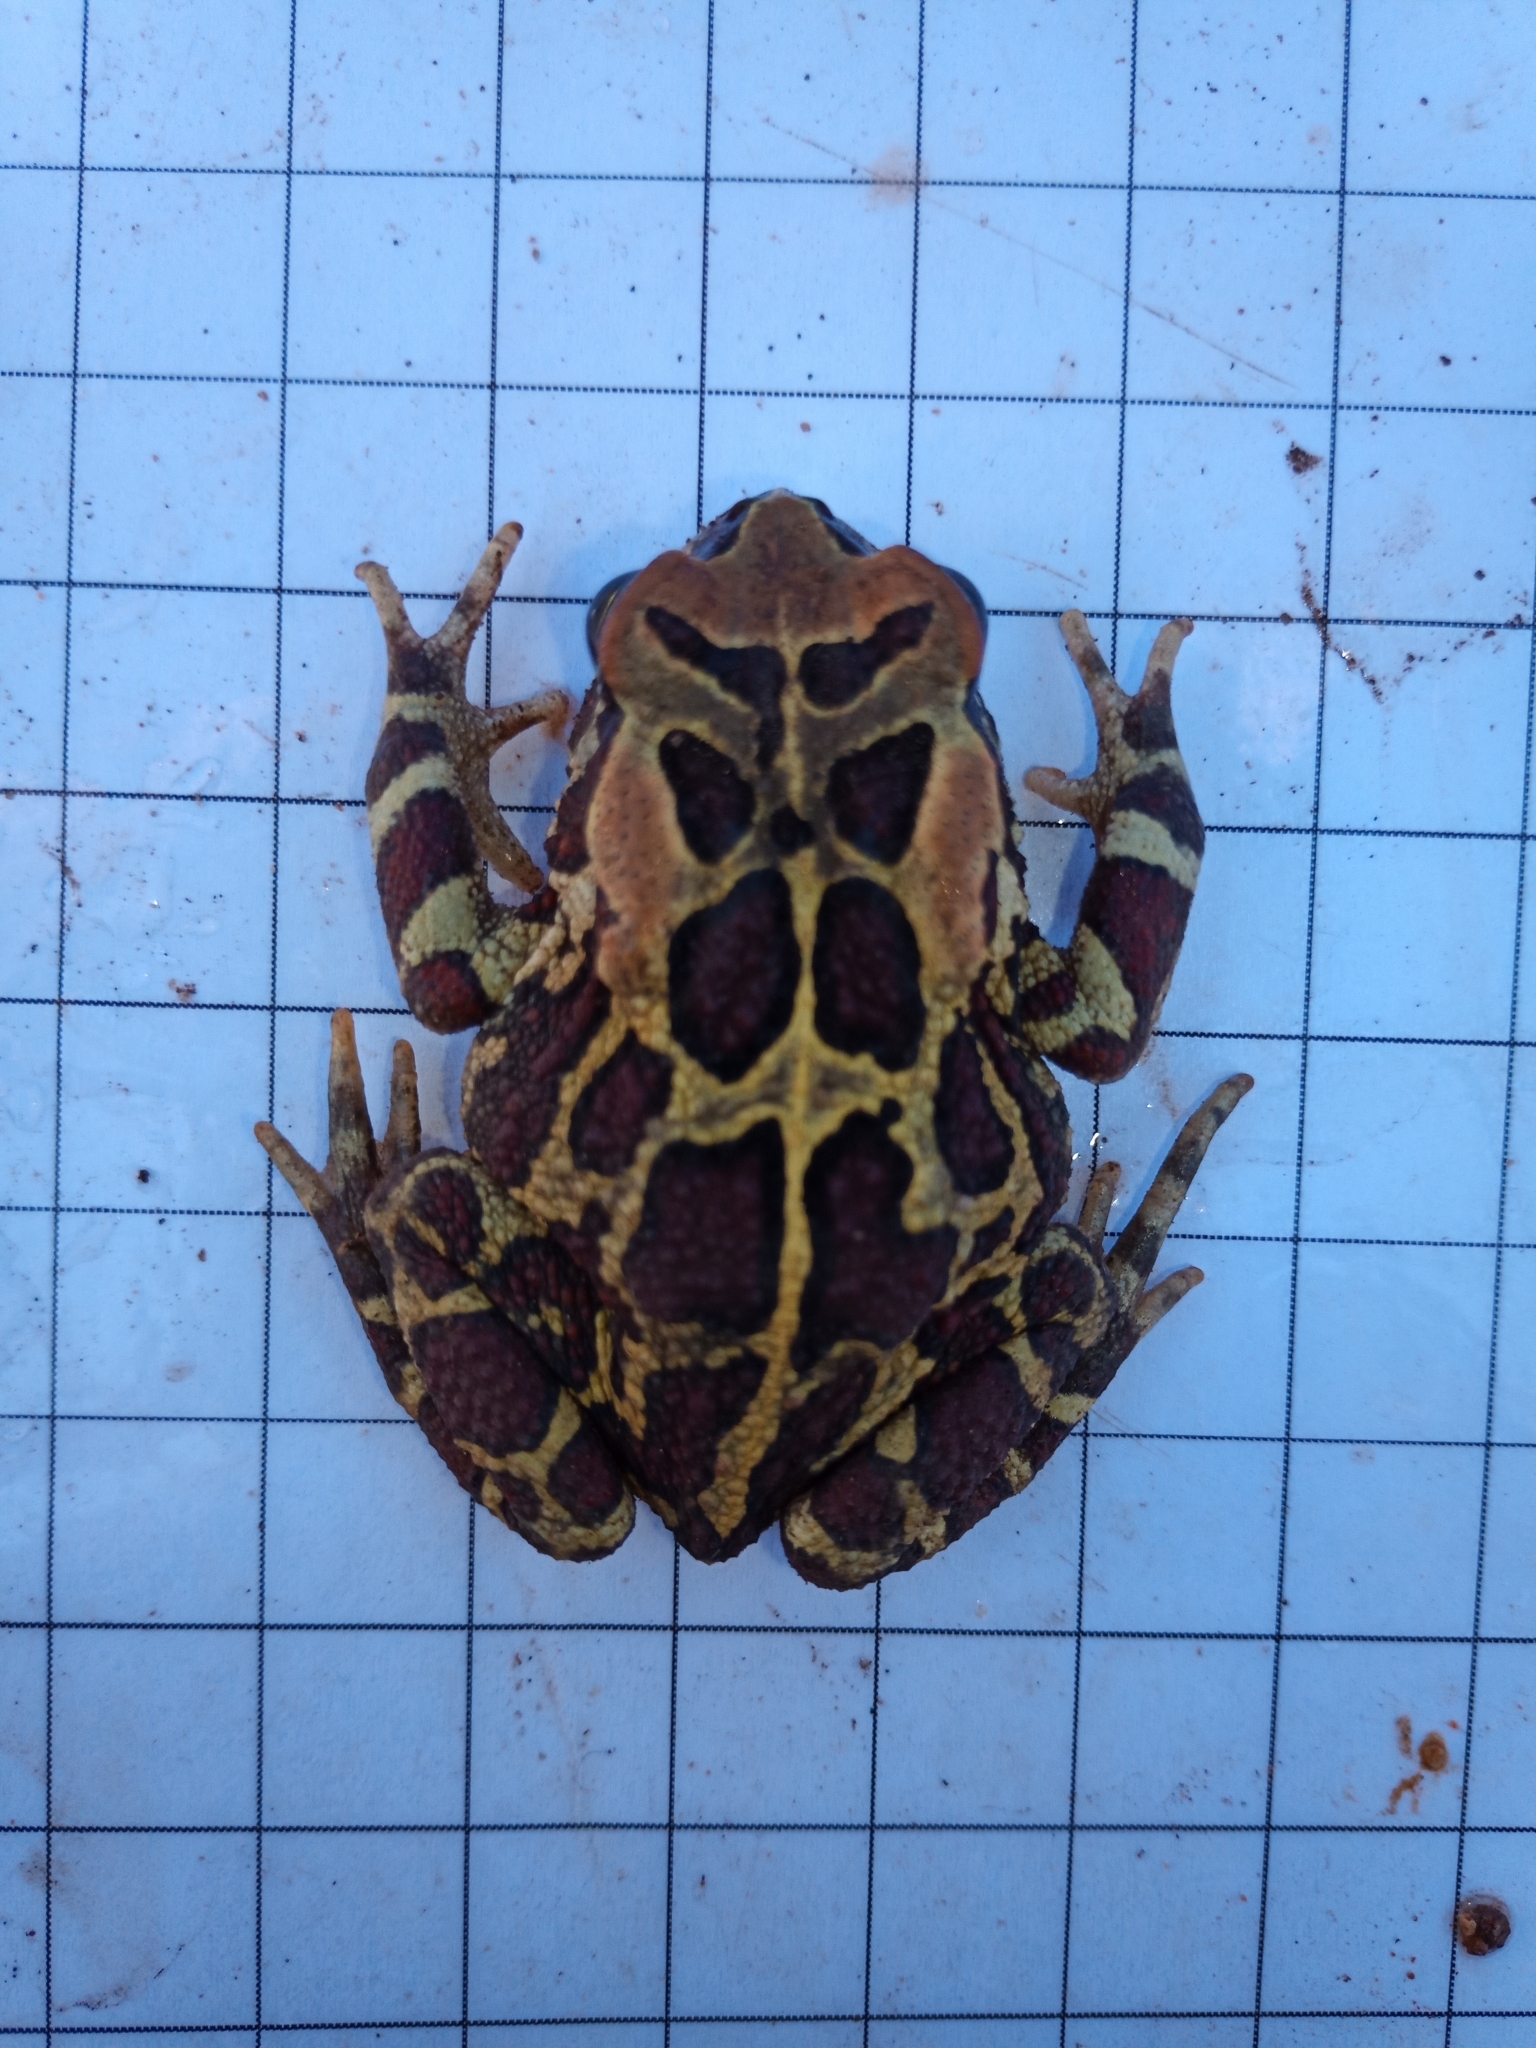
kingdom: Animalia
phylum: Chordata
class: Amphibia
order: Anura
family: Bufonidae
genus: Sclerophrys
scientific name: Sclerophrys pantherina
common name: Panther toad
